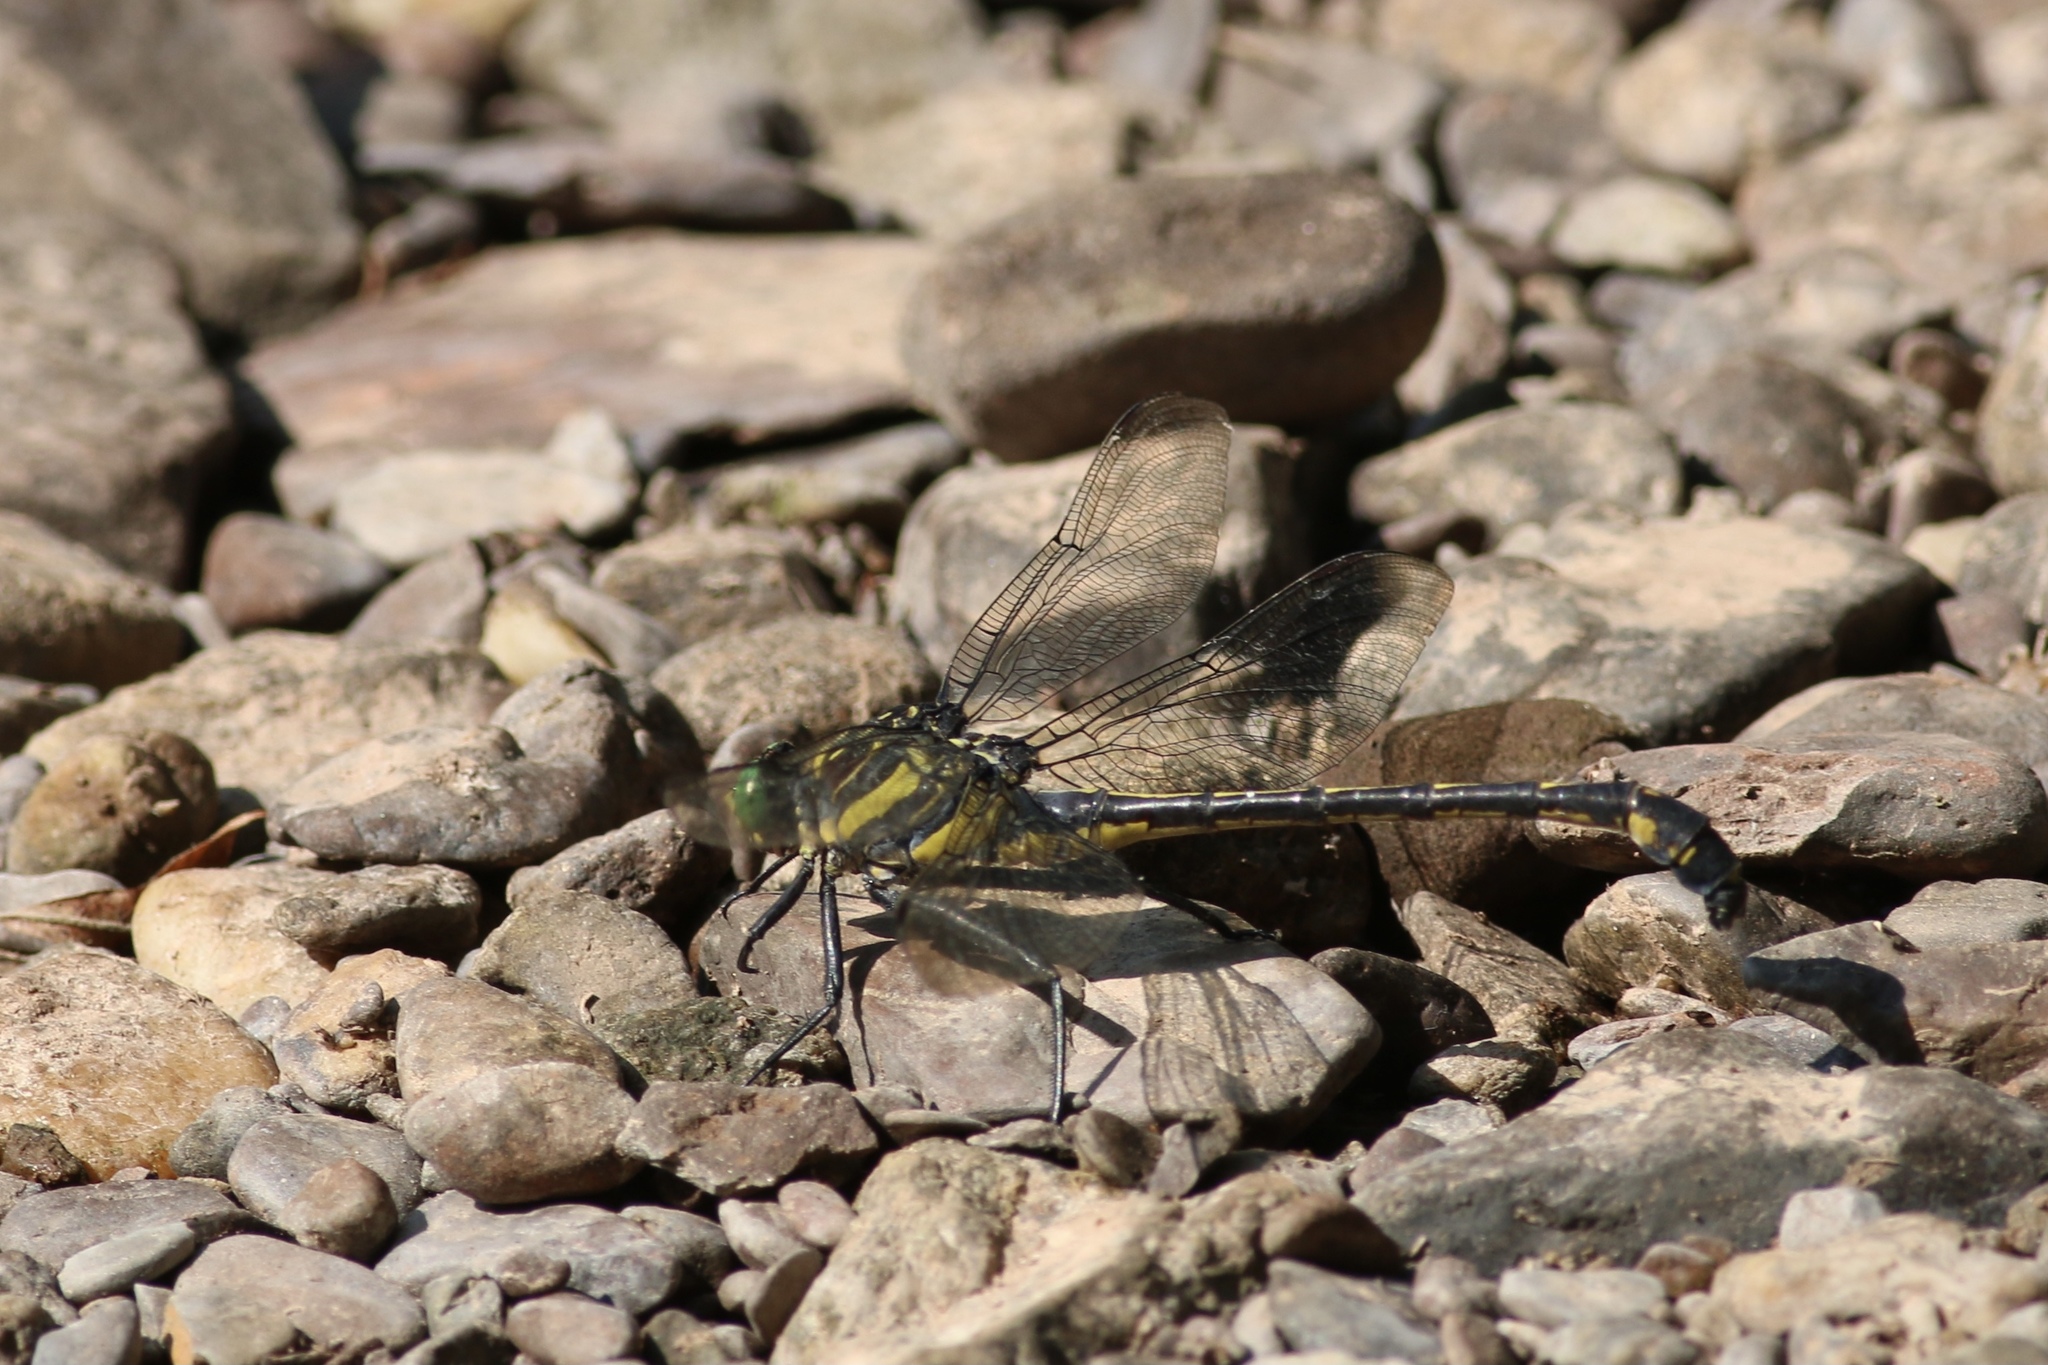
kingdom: Animalia
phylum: Arthropoda
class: Insecta
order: Odonata
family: Gomphidae
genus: Hagenius
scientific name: Hagenius brevistylus
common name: Dragonhunter
